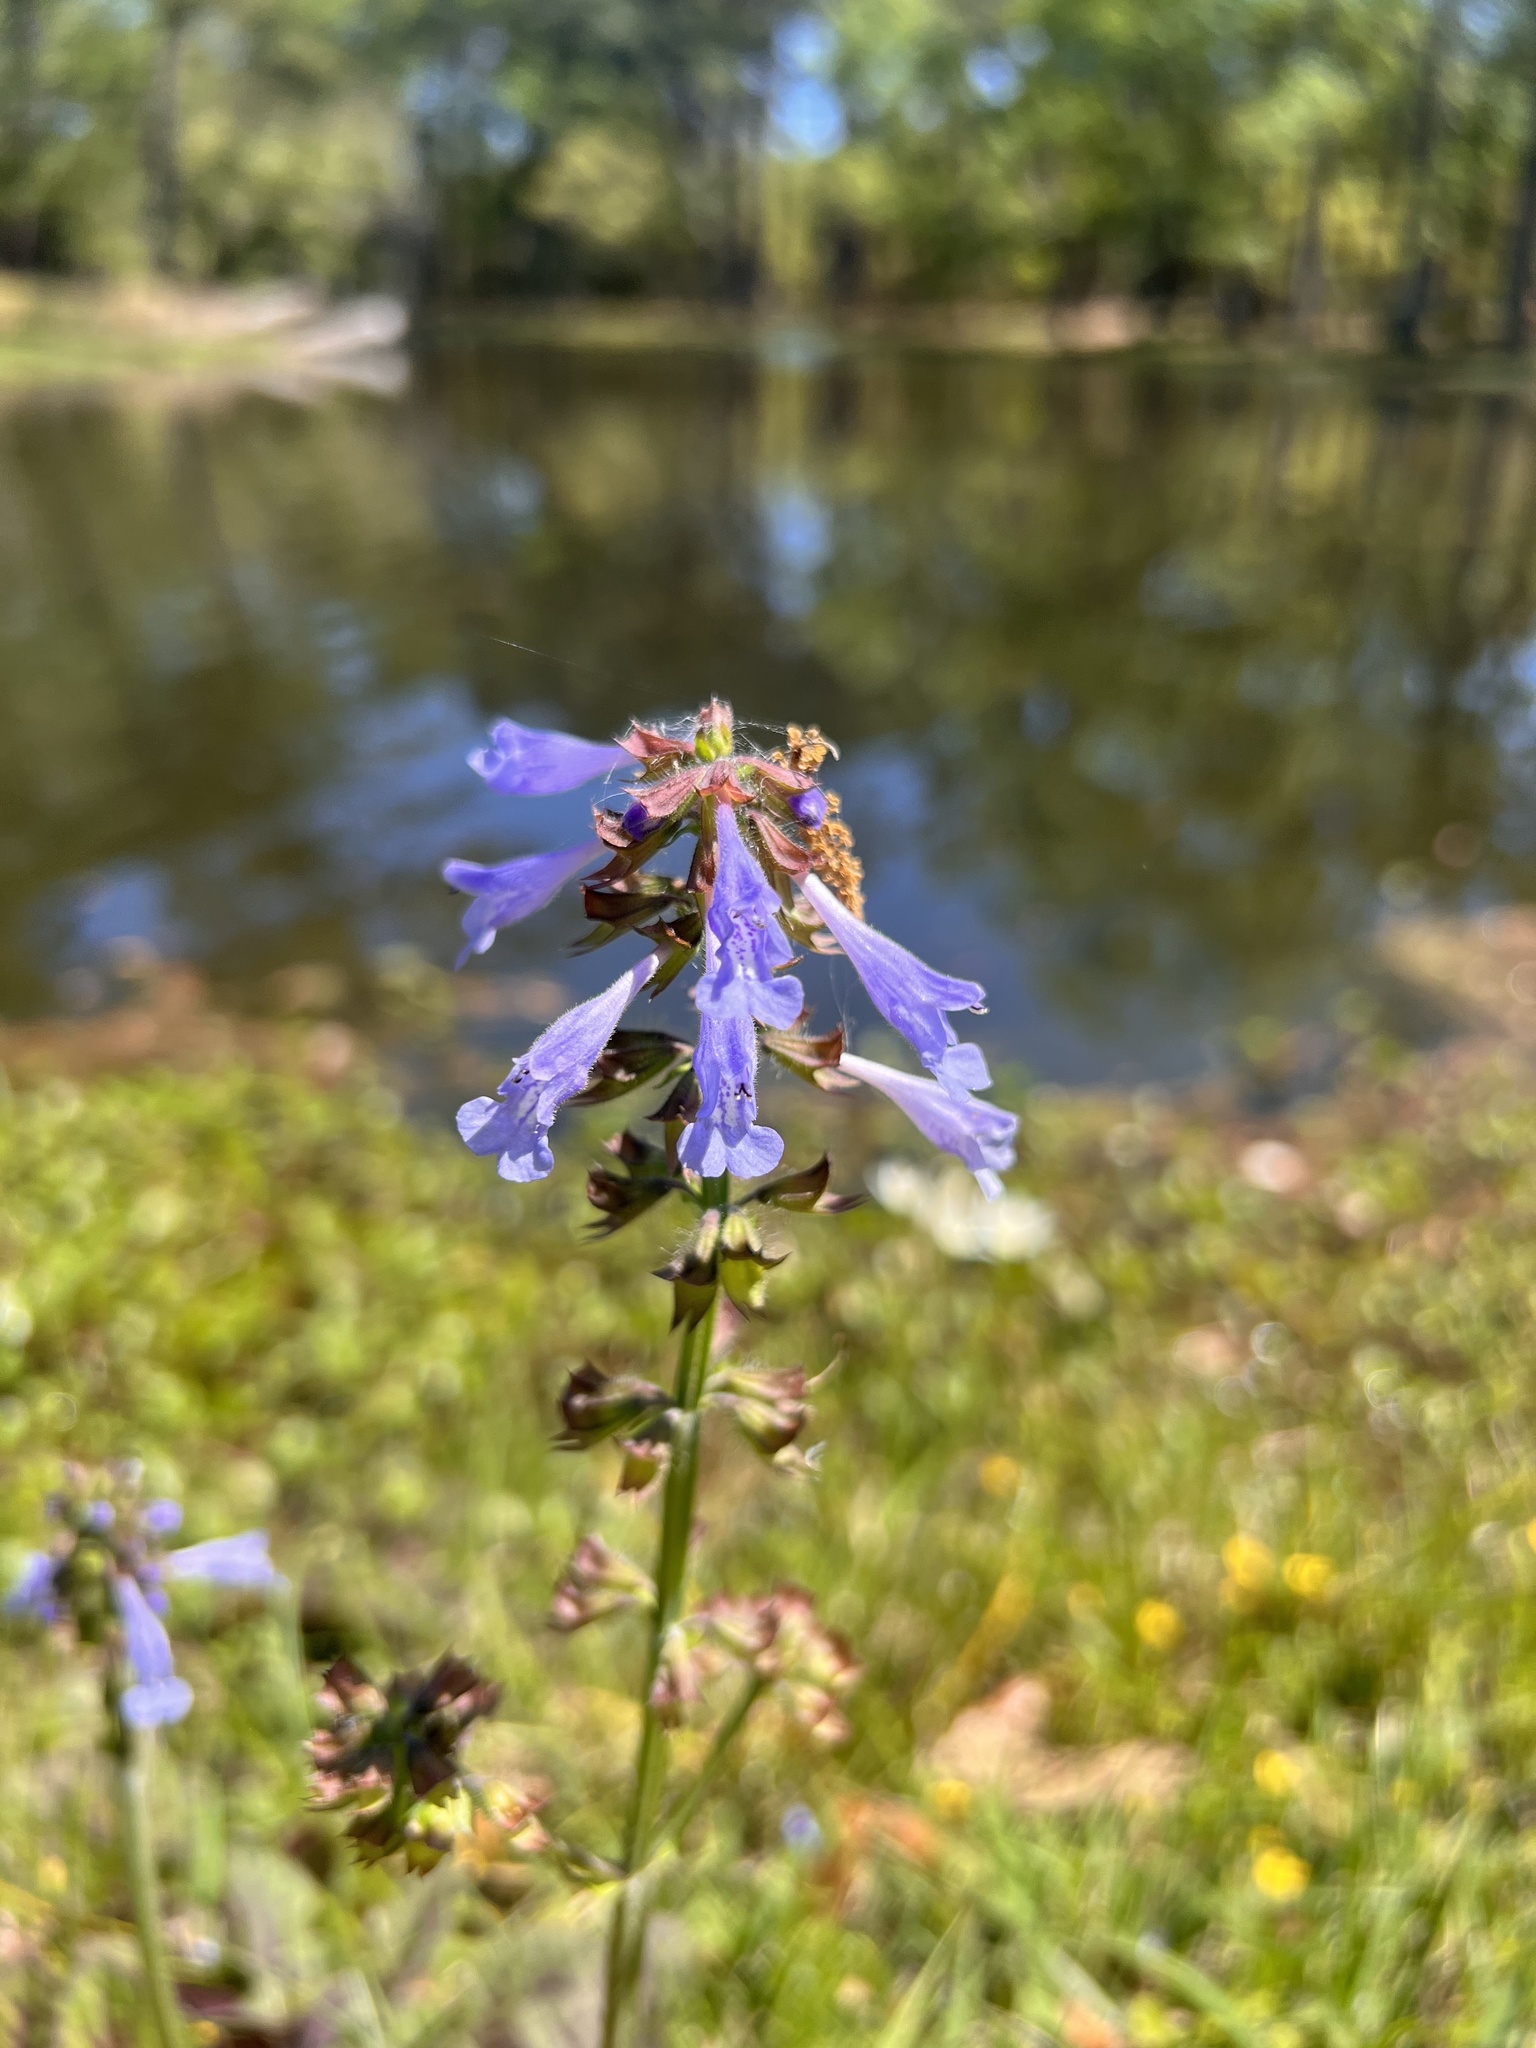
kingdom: Plantae
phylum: Tracheophyta
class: Magnoliopsida
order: Lamiales
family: Lamiaceae
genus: Salvia
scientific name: Salvia lyrata
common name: Cancerweed
